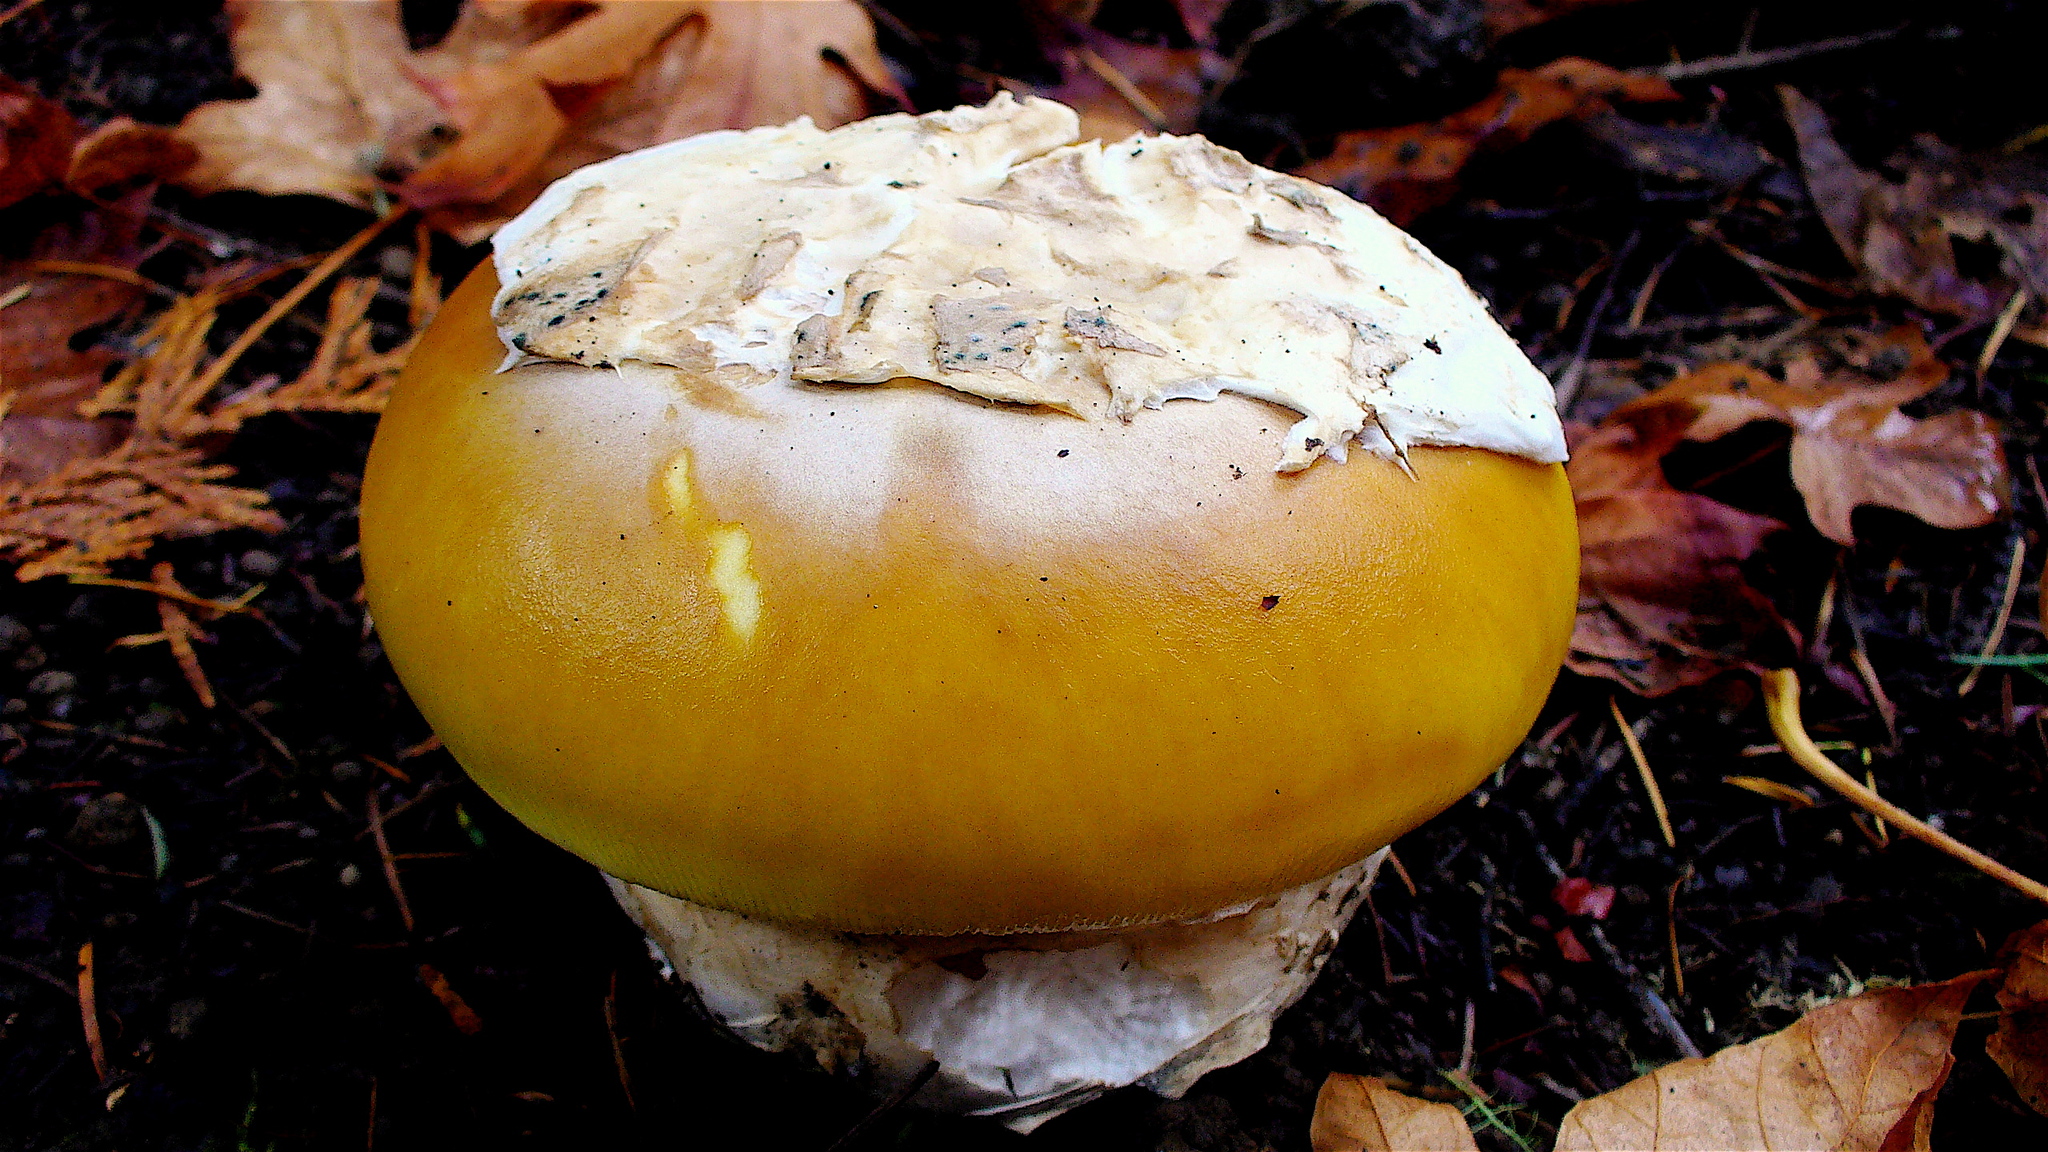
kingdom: Fungi
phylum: Basidiomycota
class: Agaricomycetes
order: Agaricales
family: Amanitaceae
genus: Amanita
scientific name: Amanita calyptroderma
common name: Coccora
